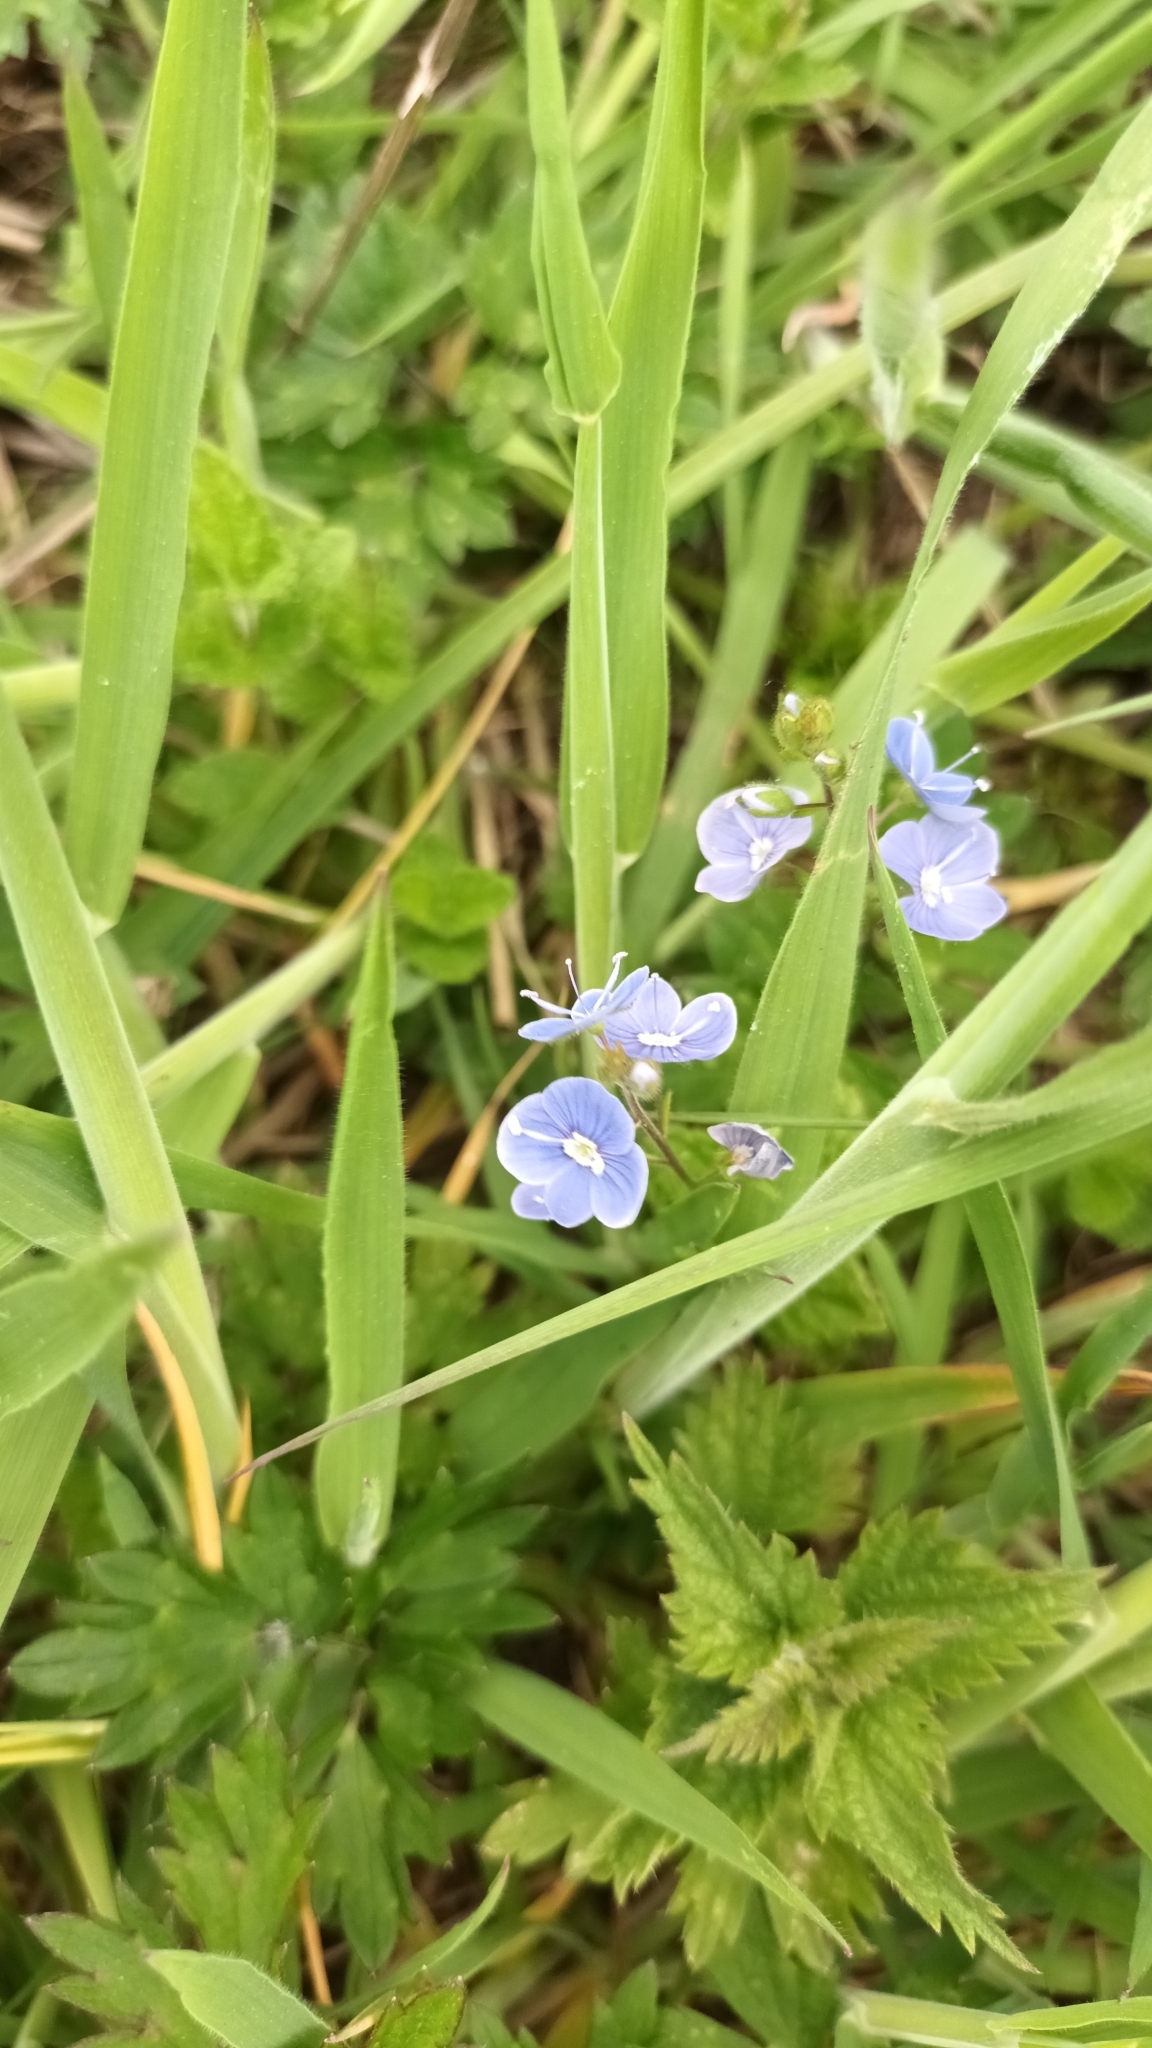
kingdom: Plantae
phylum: Tracheophyta
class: Magnoliopsida
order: Lamiales
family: Plantaginaceae
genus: Veronica
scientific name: Veronica chamaedrys
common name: Germander speedwell
